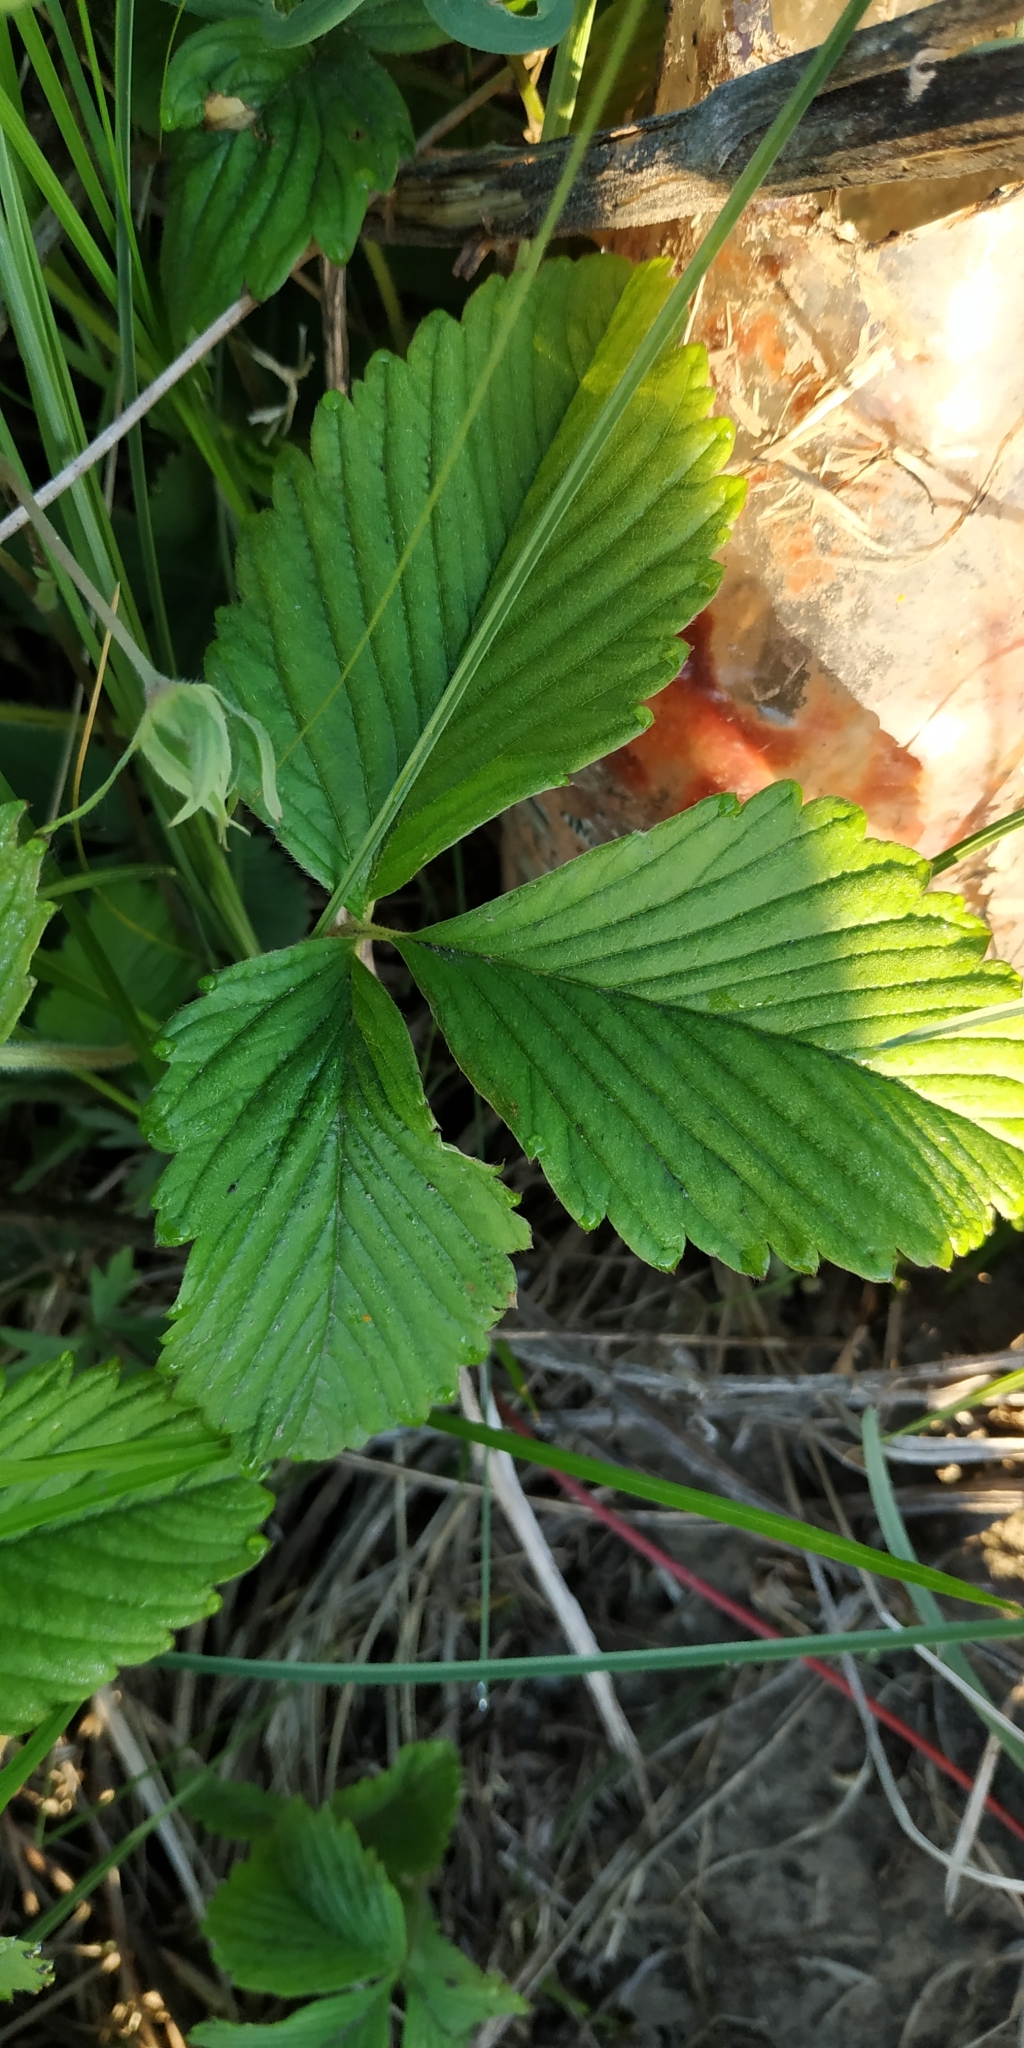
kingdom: Plantae
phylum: Tracheophyta
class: Magnoliopsida
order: Rosales
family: Rosaceae
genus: Fragaria
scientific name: Fragaria viridis
